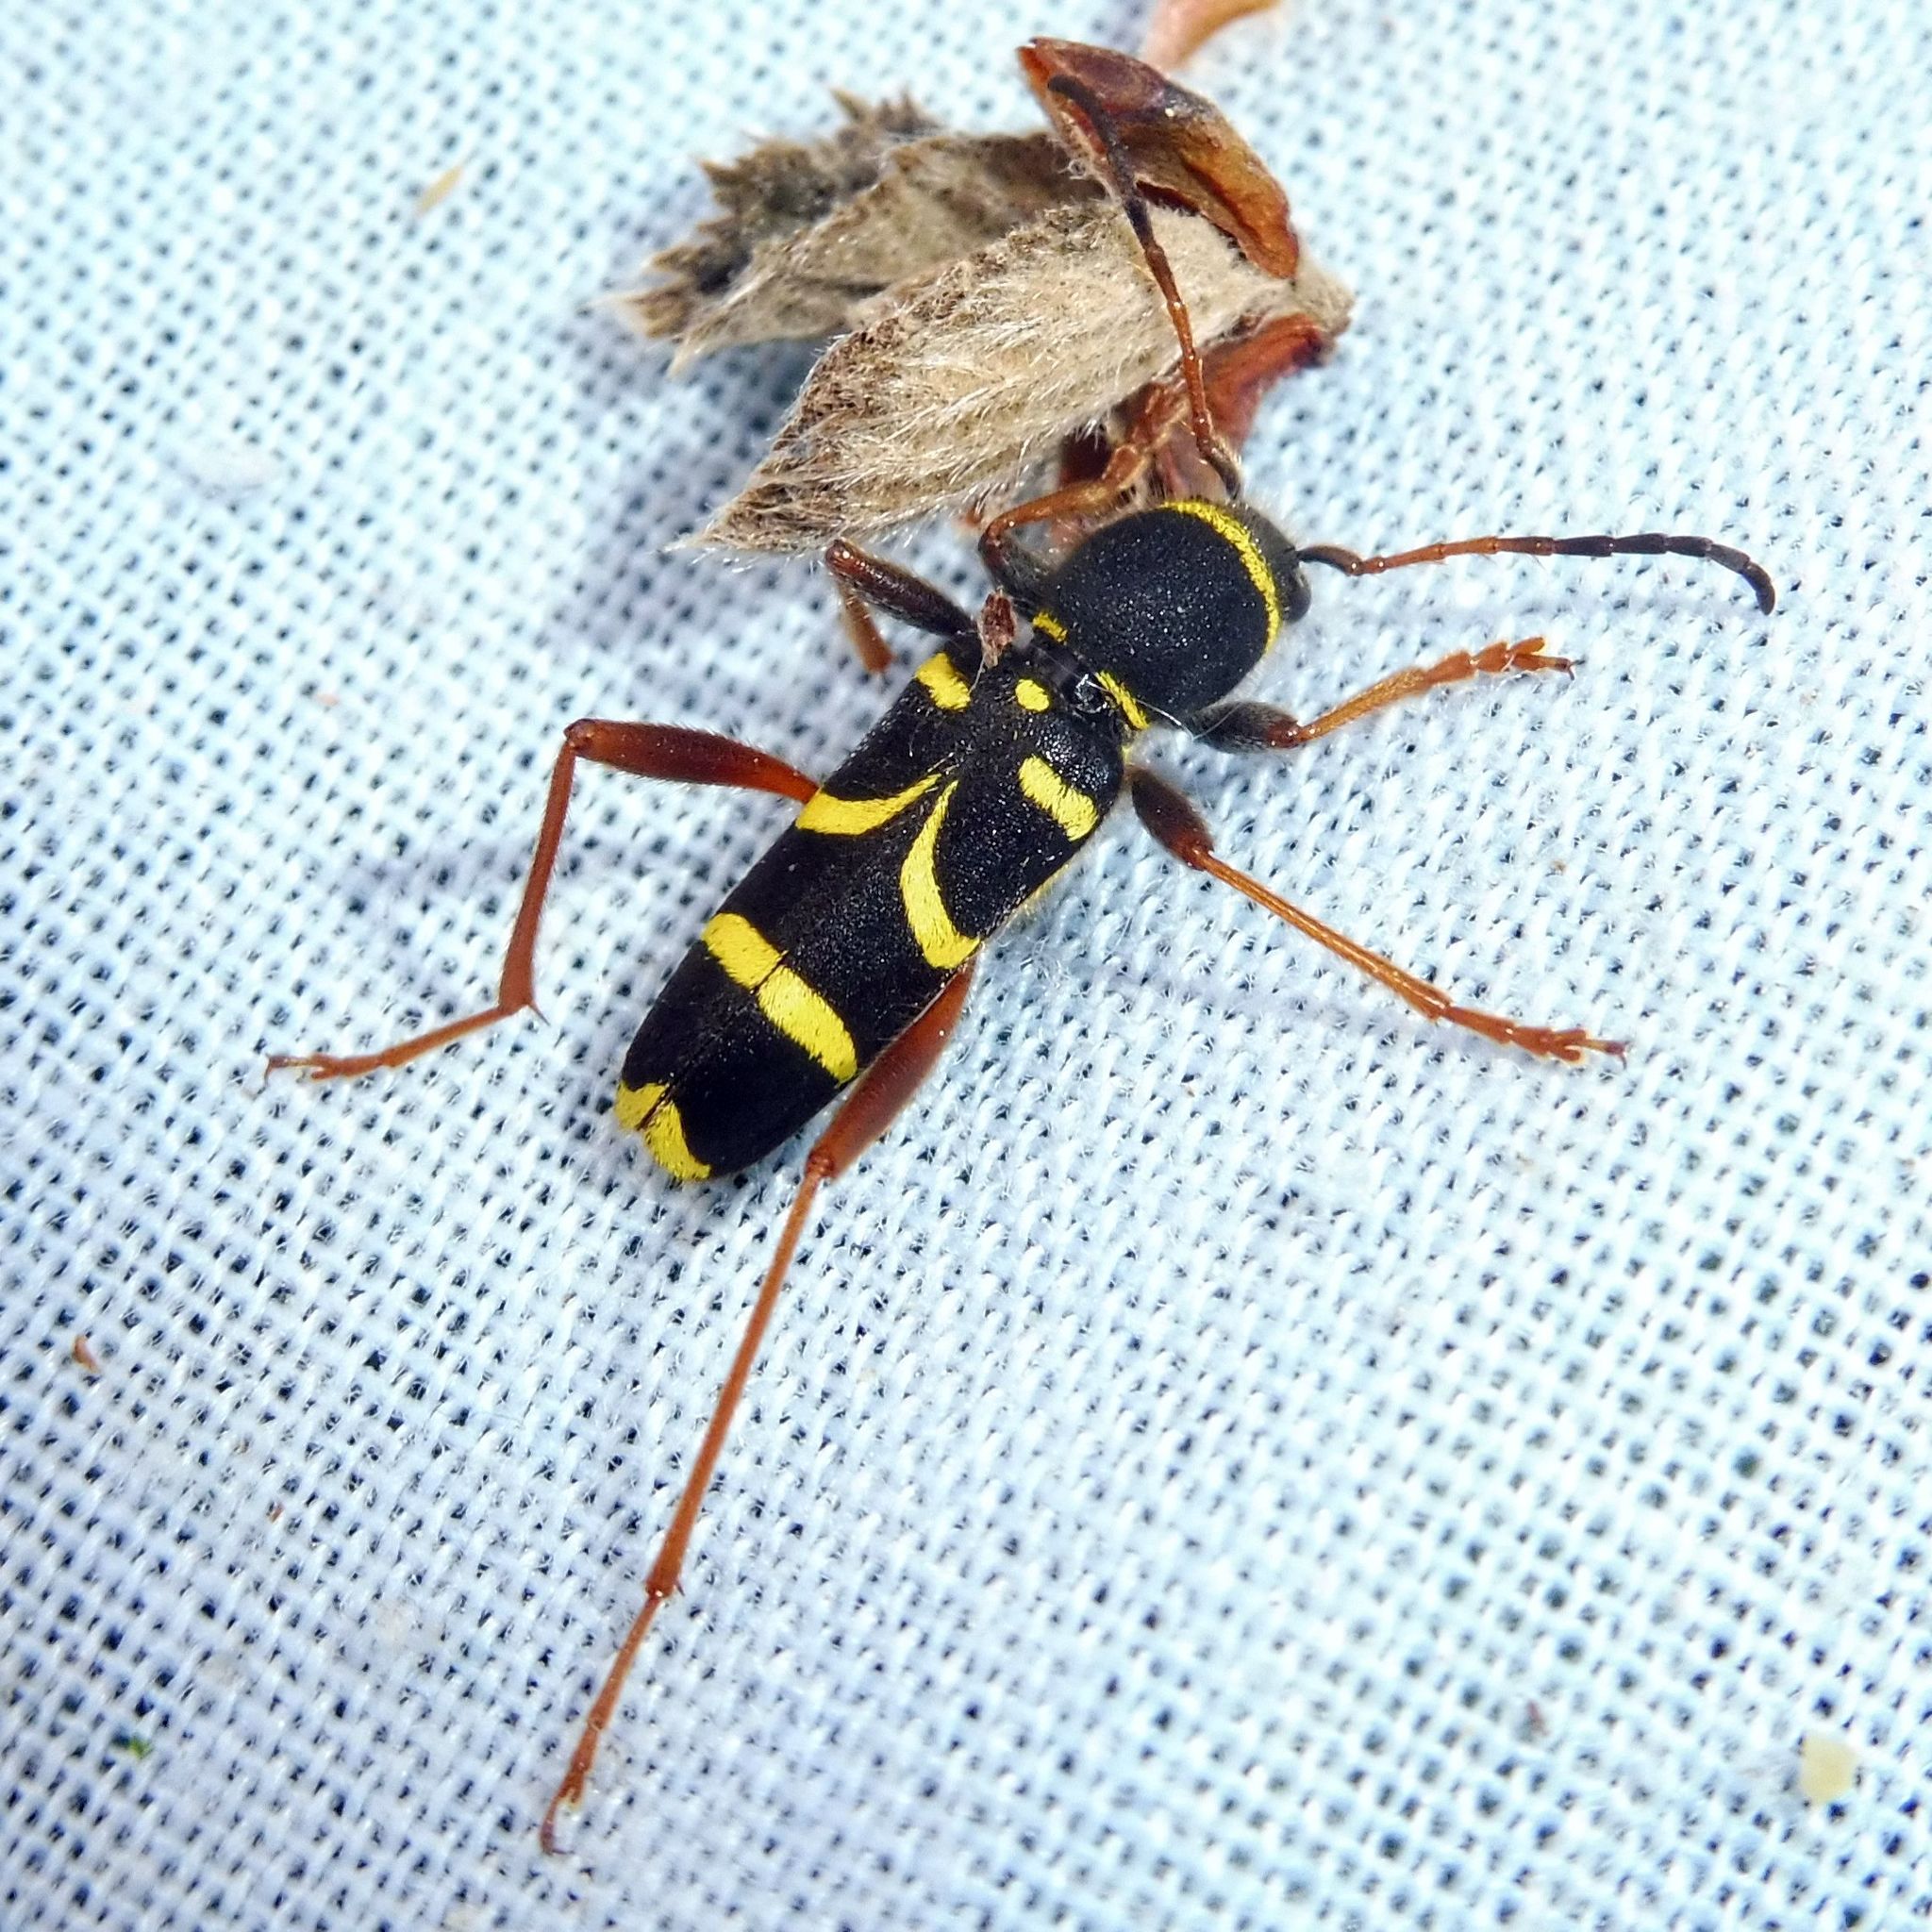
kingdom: Animalia
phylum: Arthropoda
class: Insecta
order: Coleoptera
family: Cerambycidae
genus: Clytus
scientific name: Clytus arietis
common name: Wasp beetle
